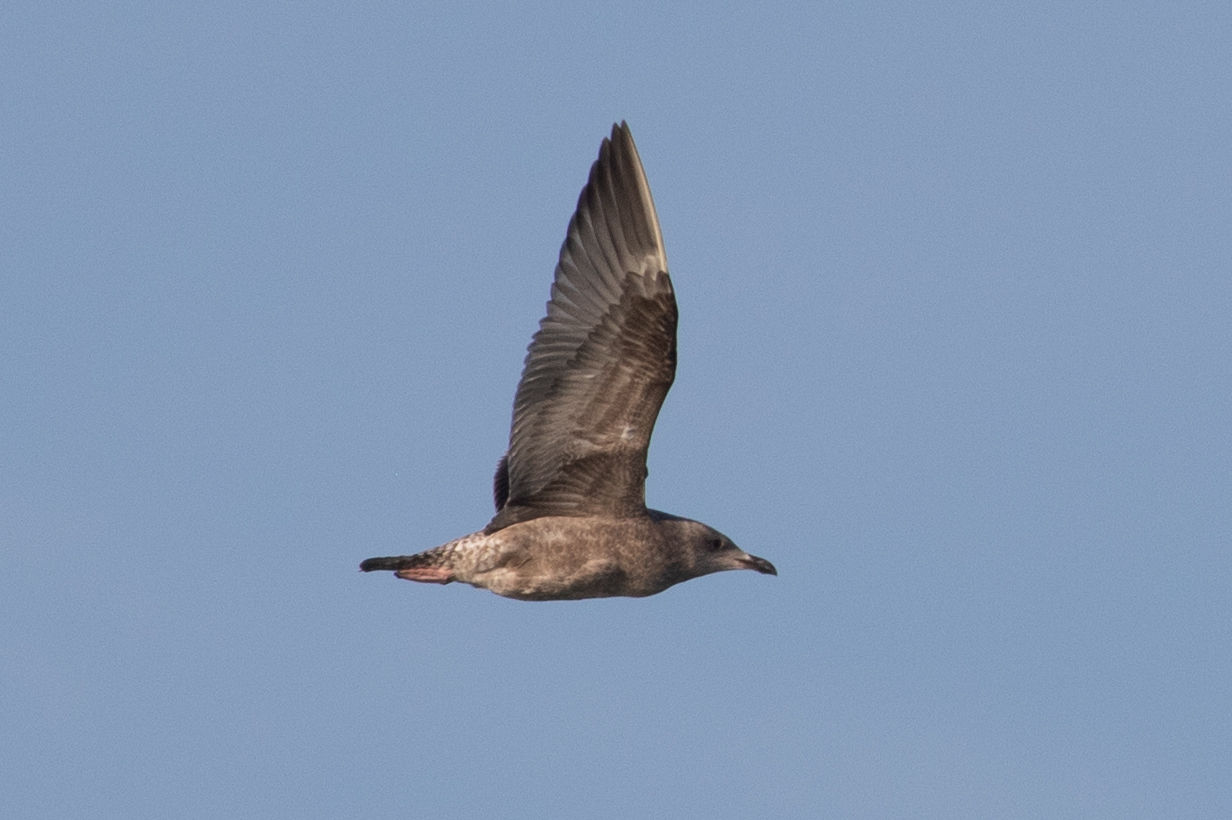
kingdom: Animalia
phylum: Chordata
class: Aves
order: Charadriiformes
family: Laridae
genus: Larus
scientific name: Larus argentatus
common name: Herring gull
